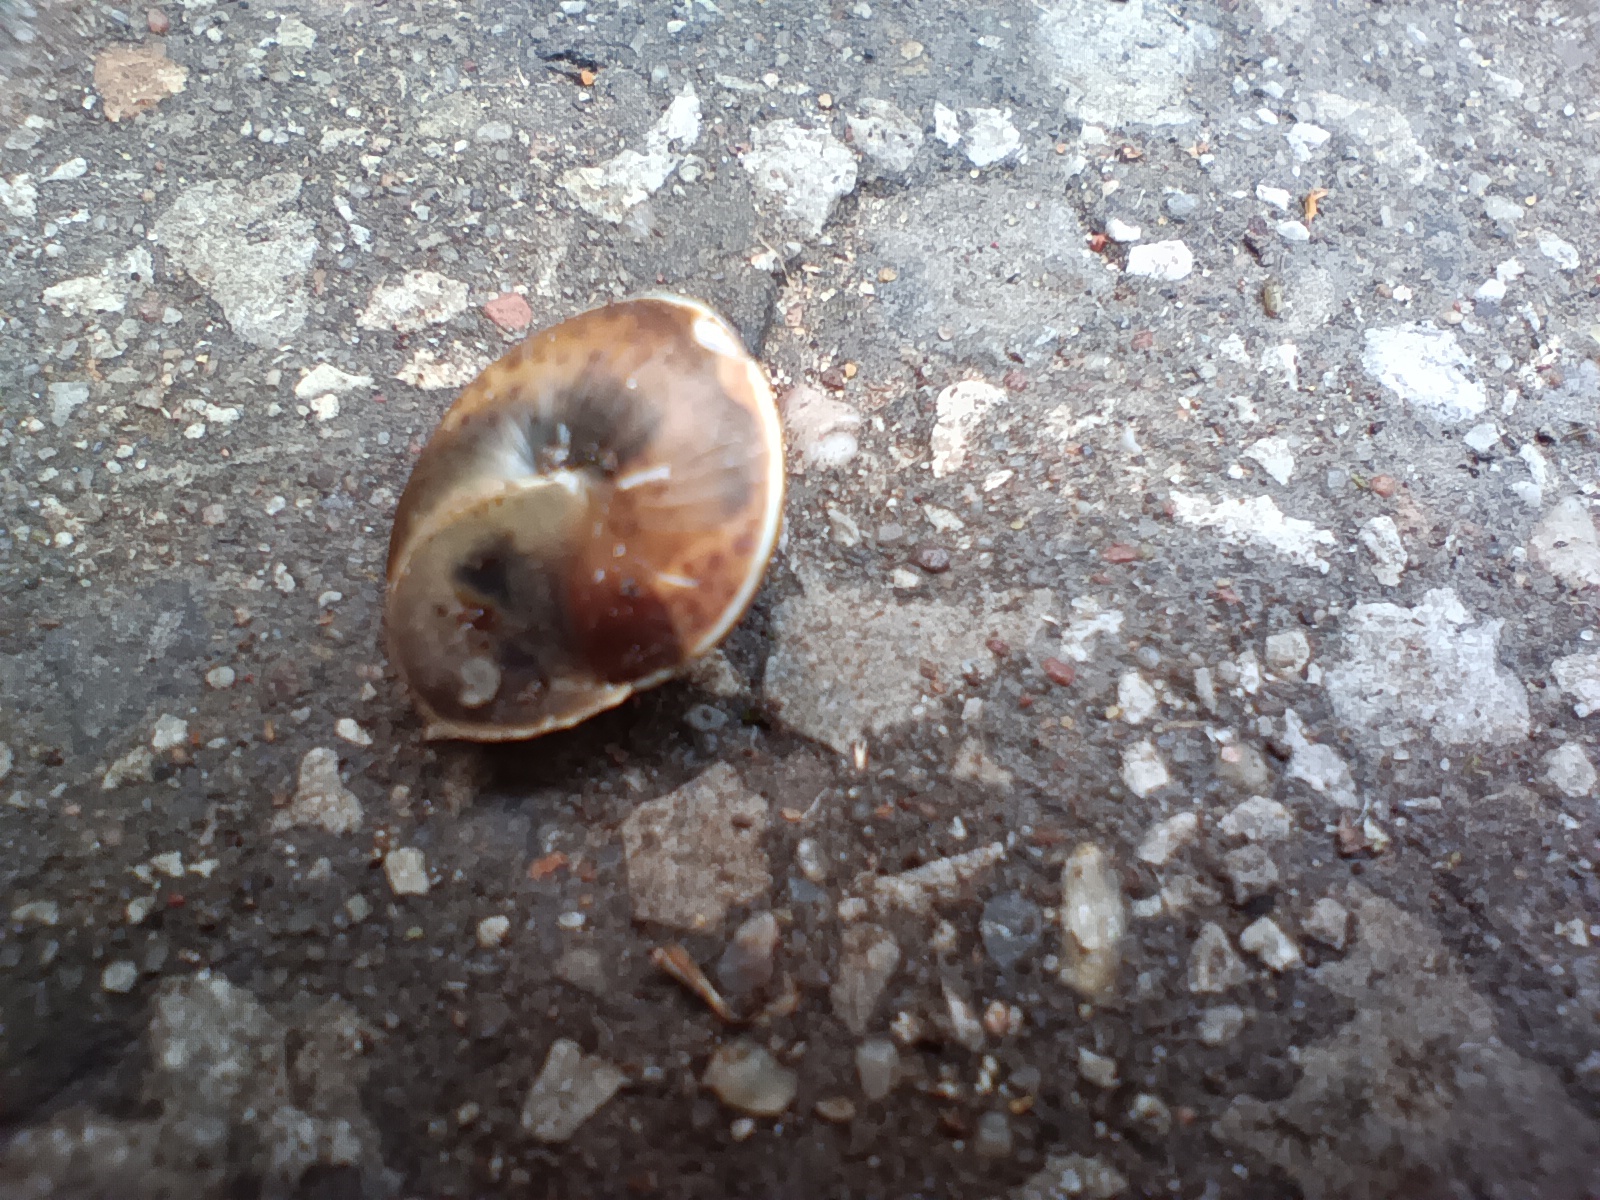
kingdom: Animalia
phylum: Mollusca
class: Gastropoda
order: Stylommatophora
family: Hygromiidae
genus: Hygromia
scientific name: Hygromia cinctella
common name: Girdled snail
